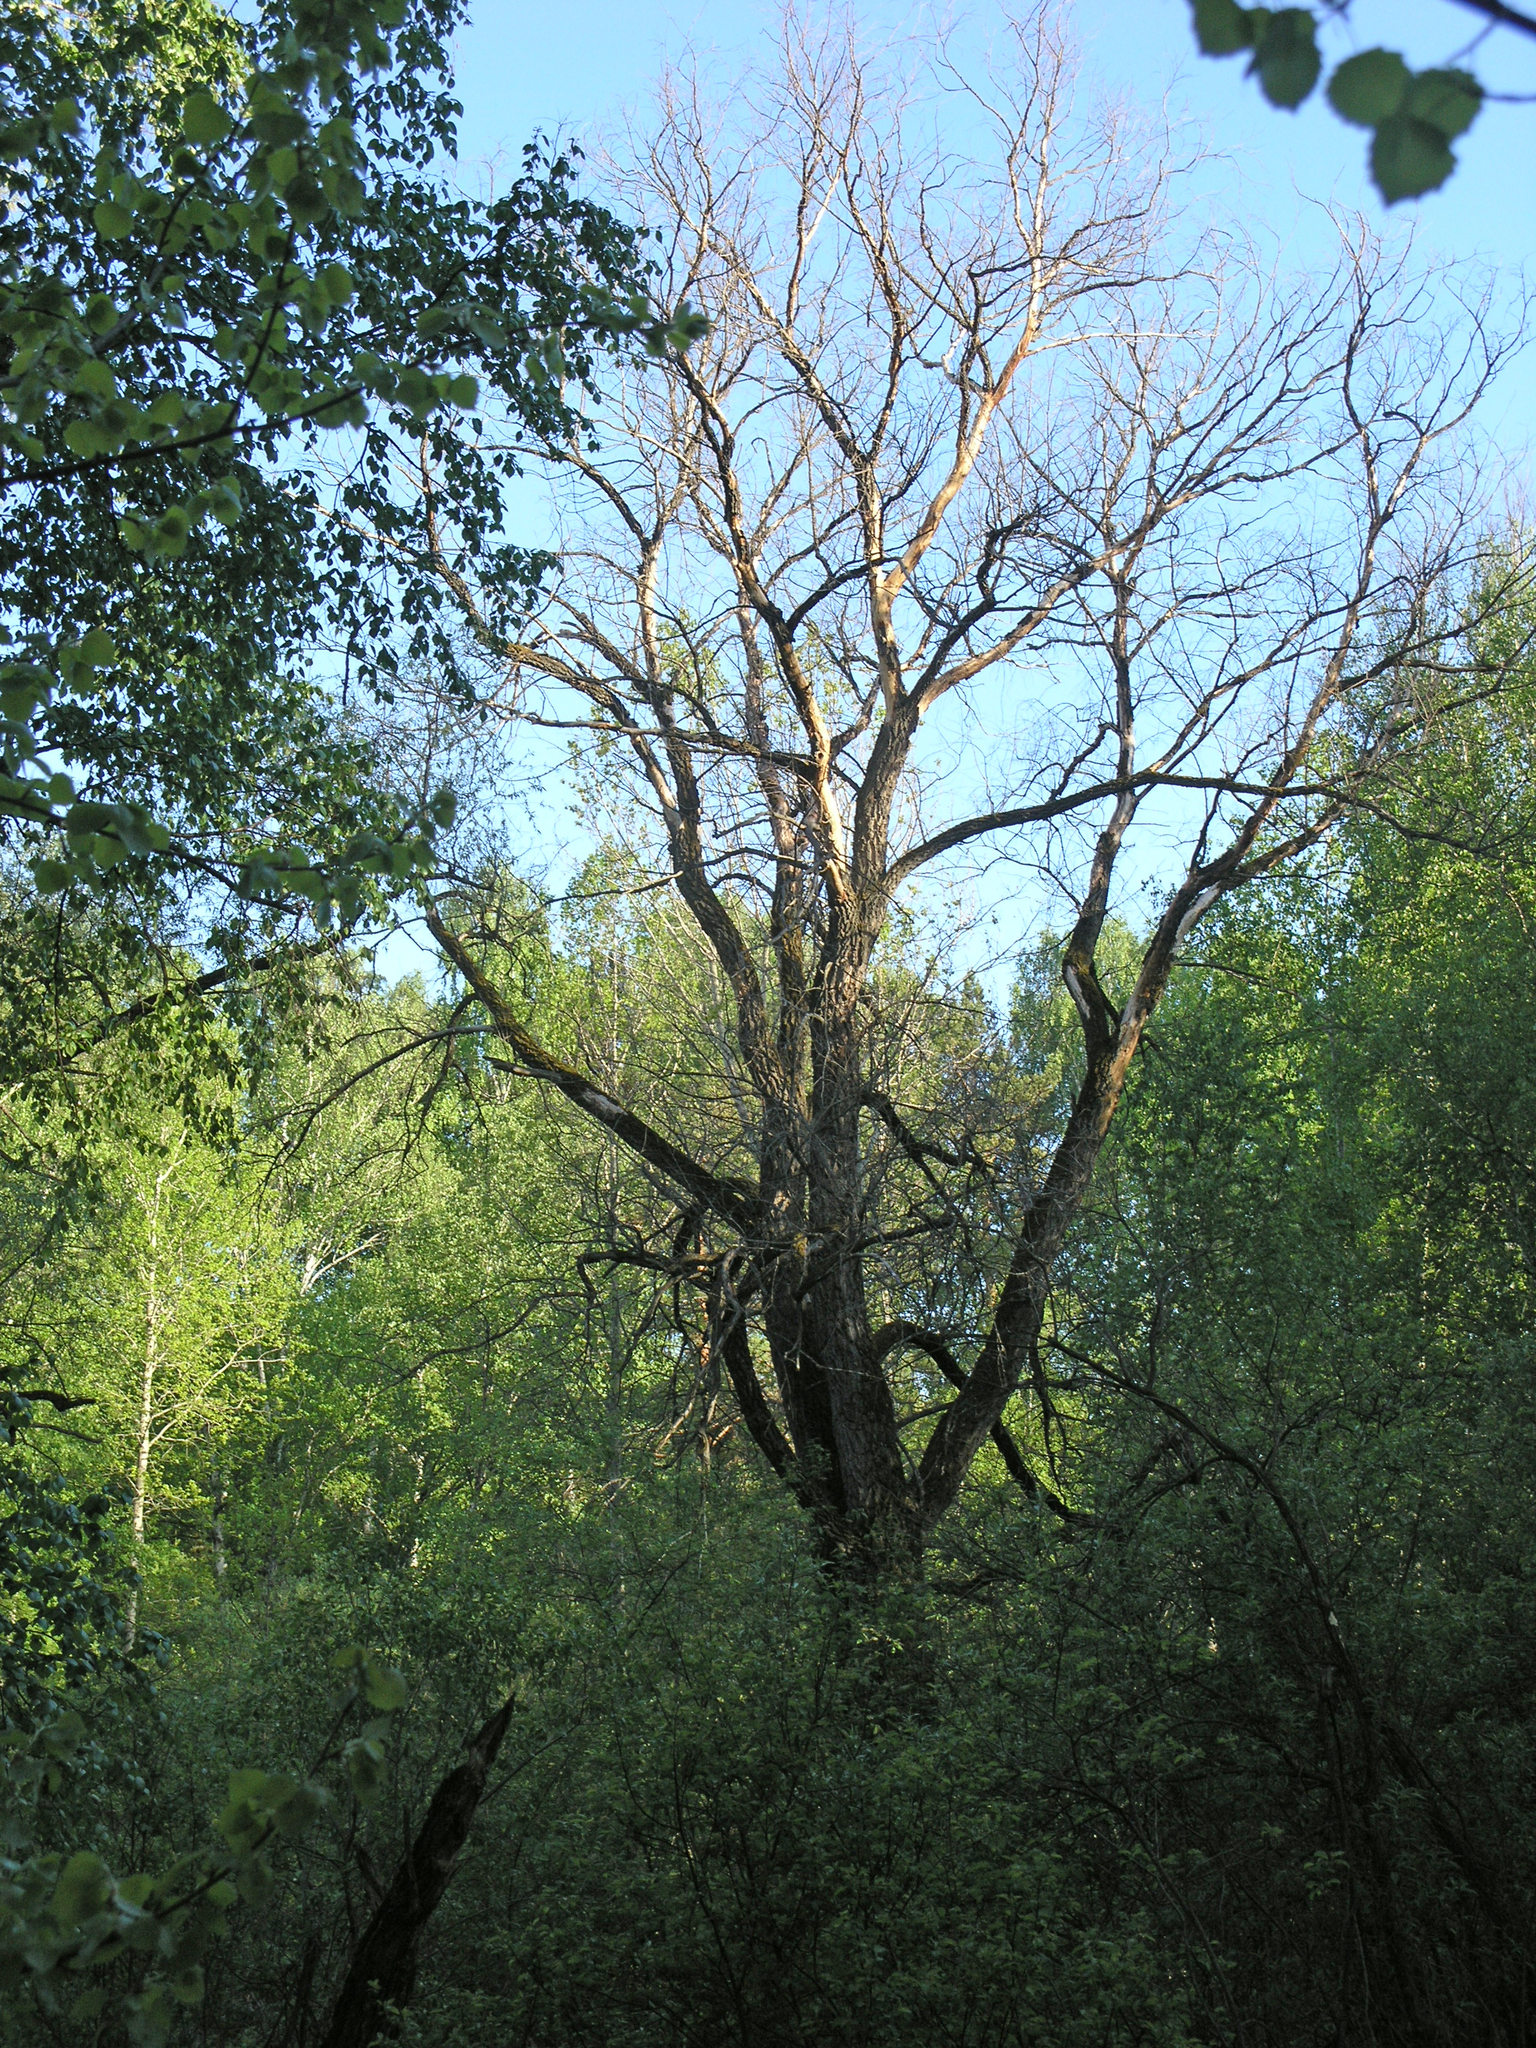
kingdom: Plantae
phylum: Tracheophyta
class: Magnoliopsida
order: Malpighiales
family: Salicaceae
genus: Salix
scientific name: Salix alba
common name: White willow
